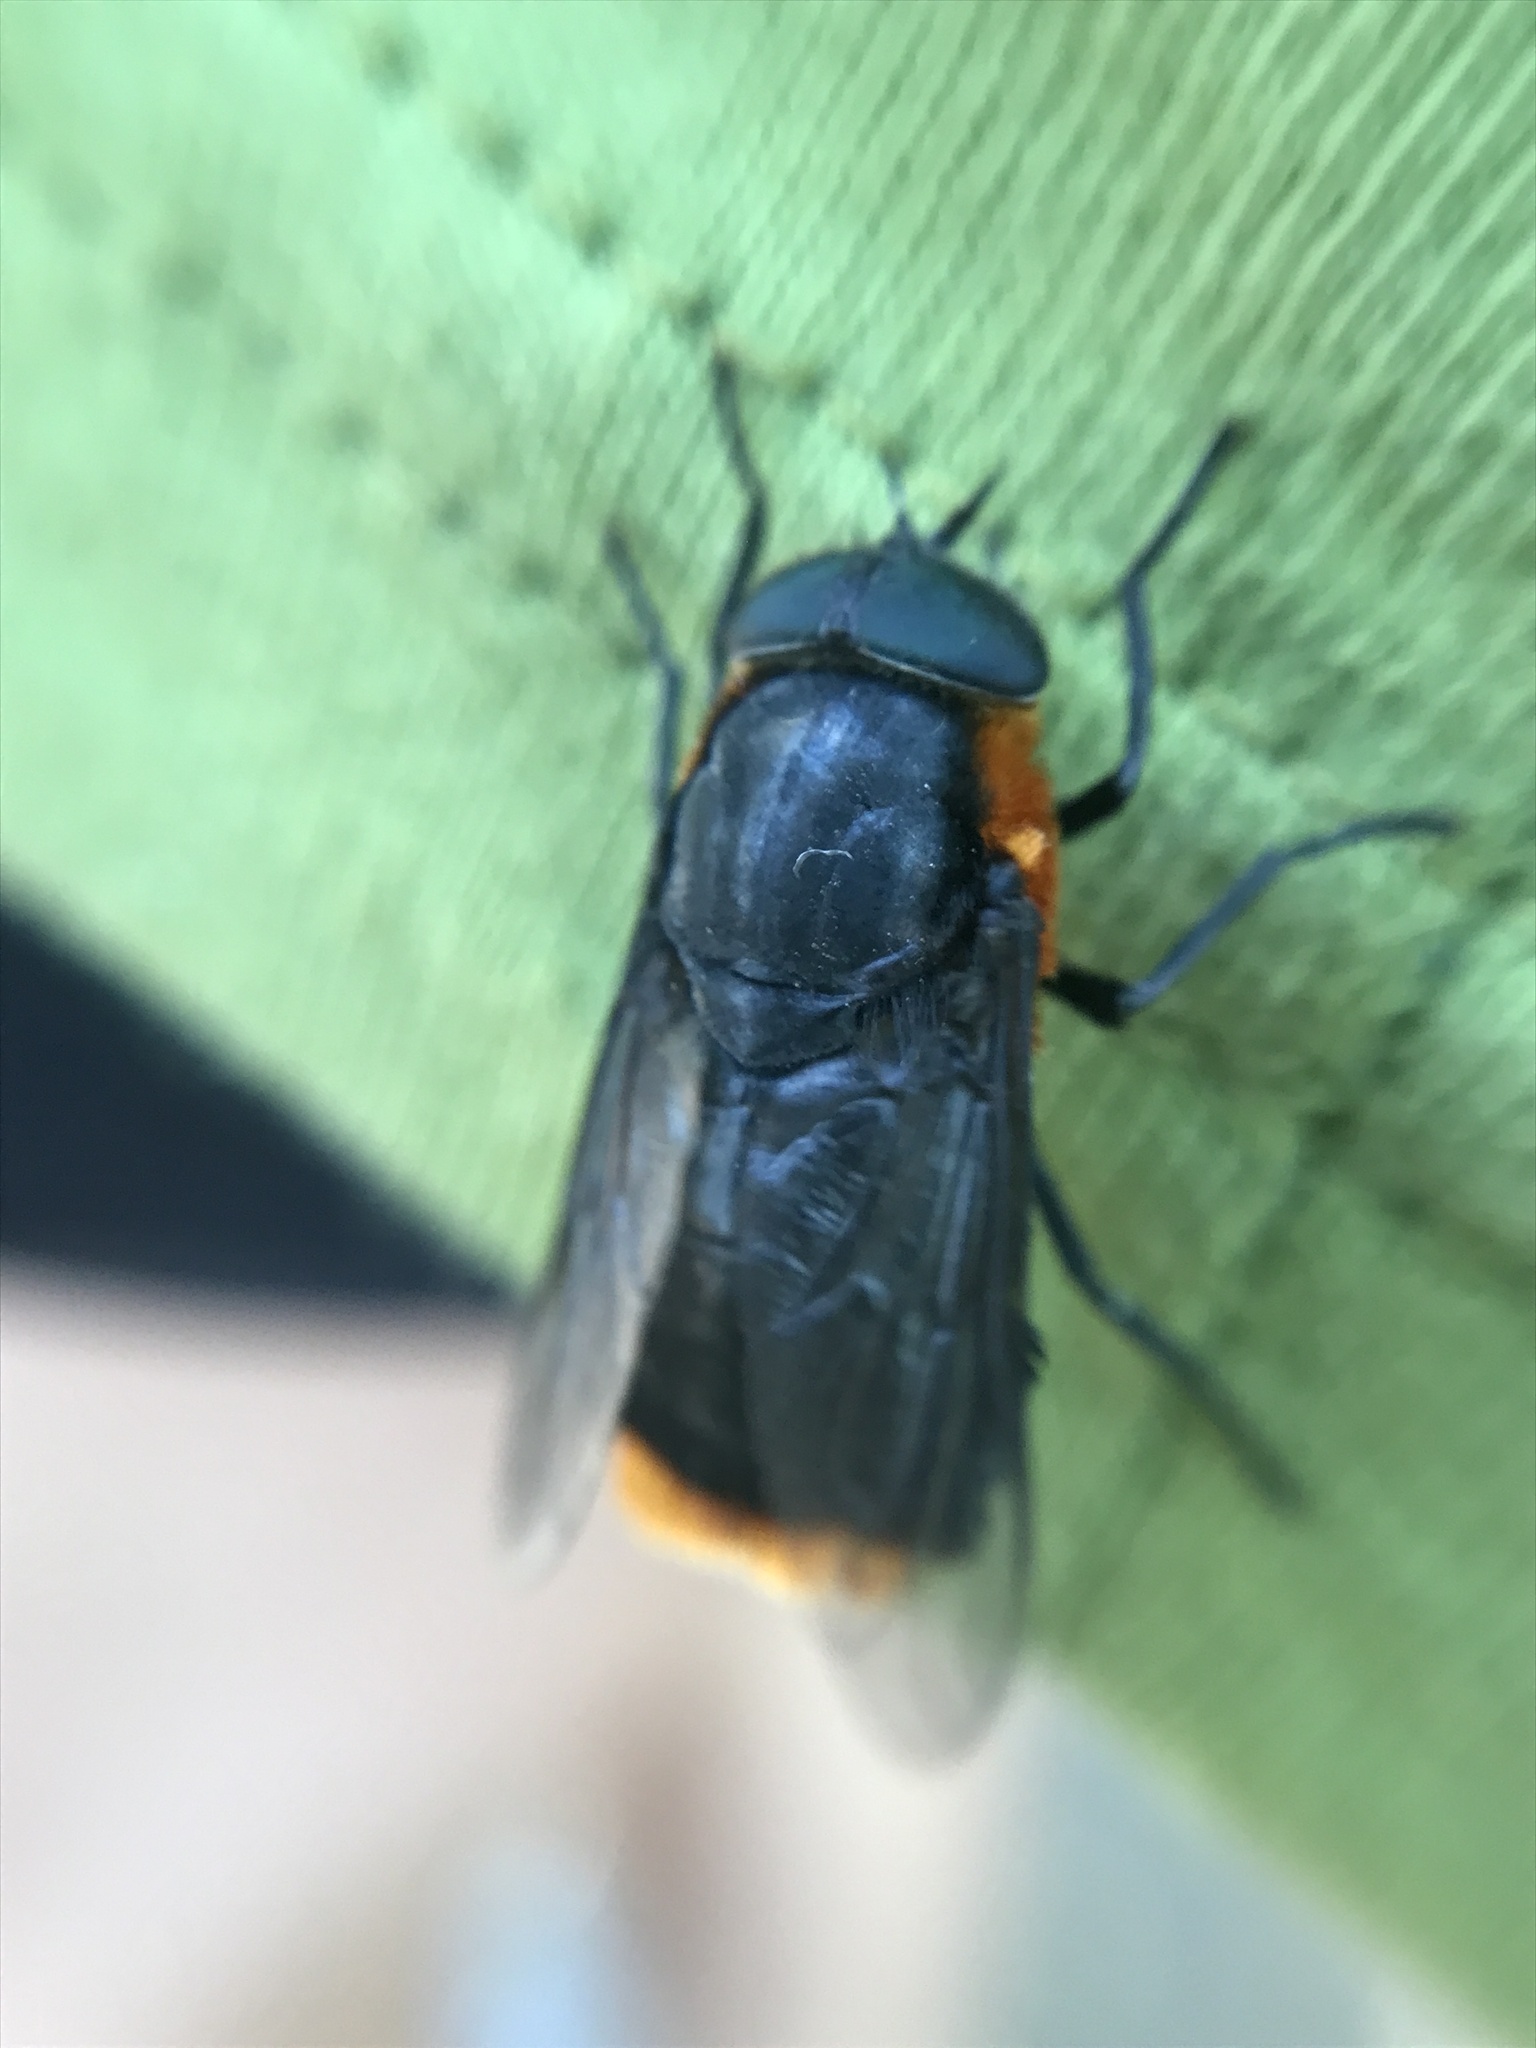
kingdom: Animalia
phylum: Arthropoda
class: Insecta
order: Diptera
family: Tabanidae
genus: Osca
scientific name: Osca lata
